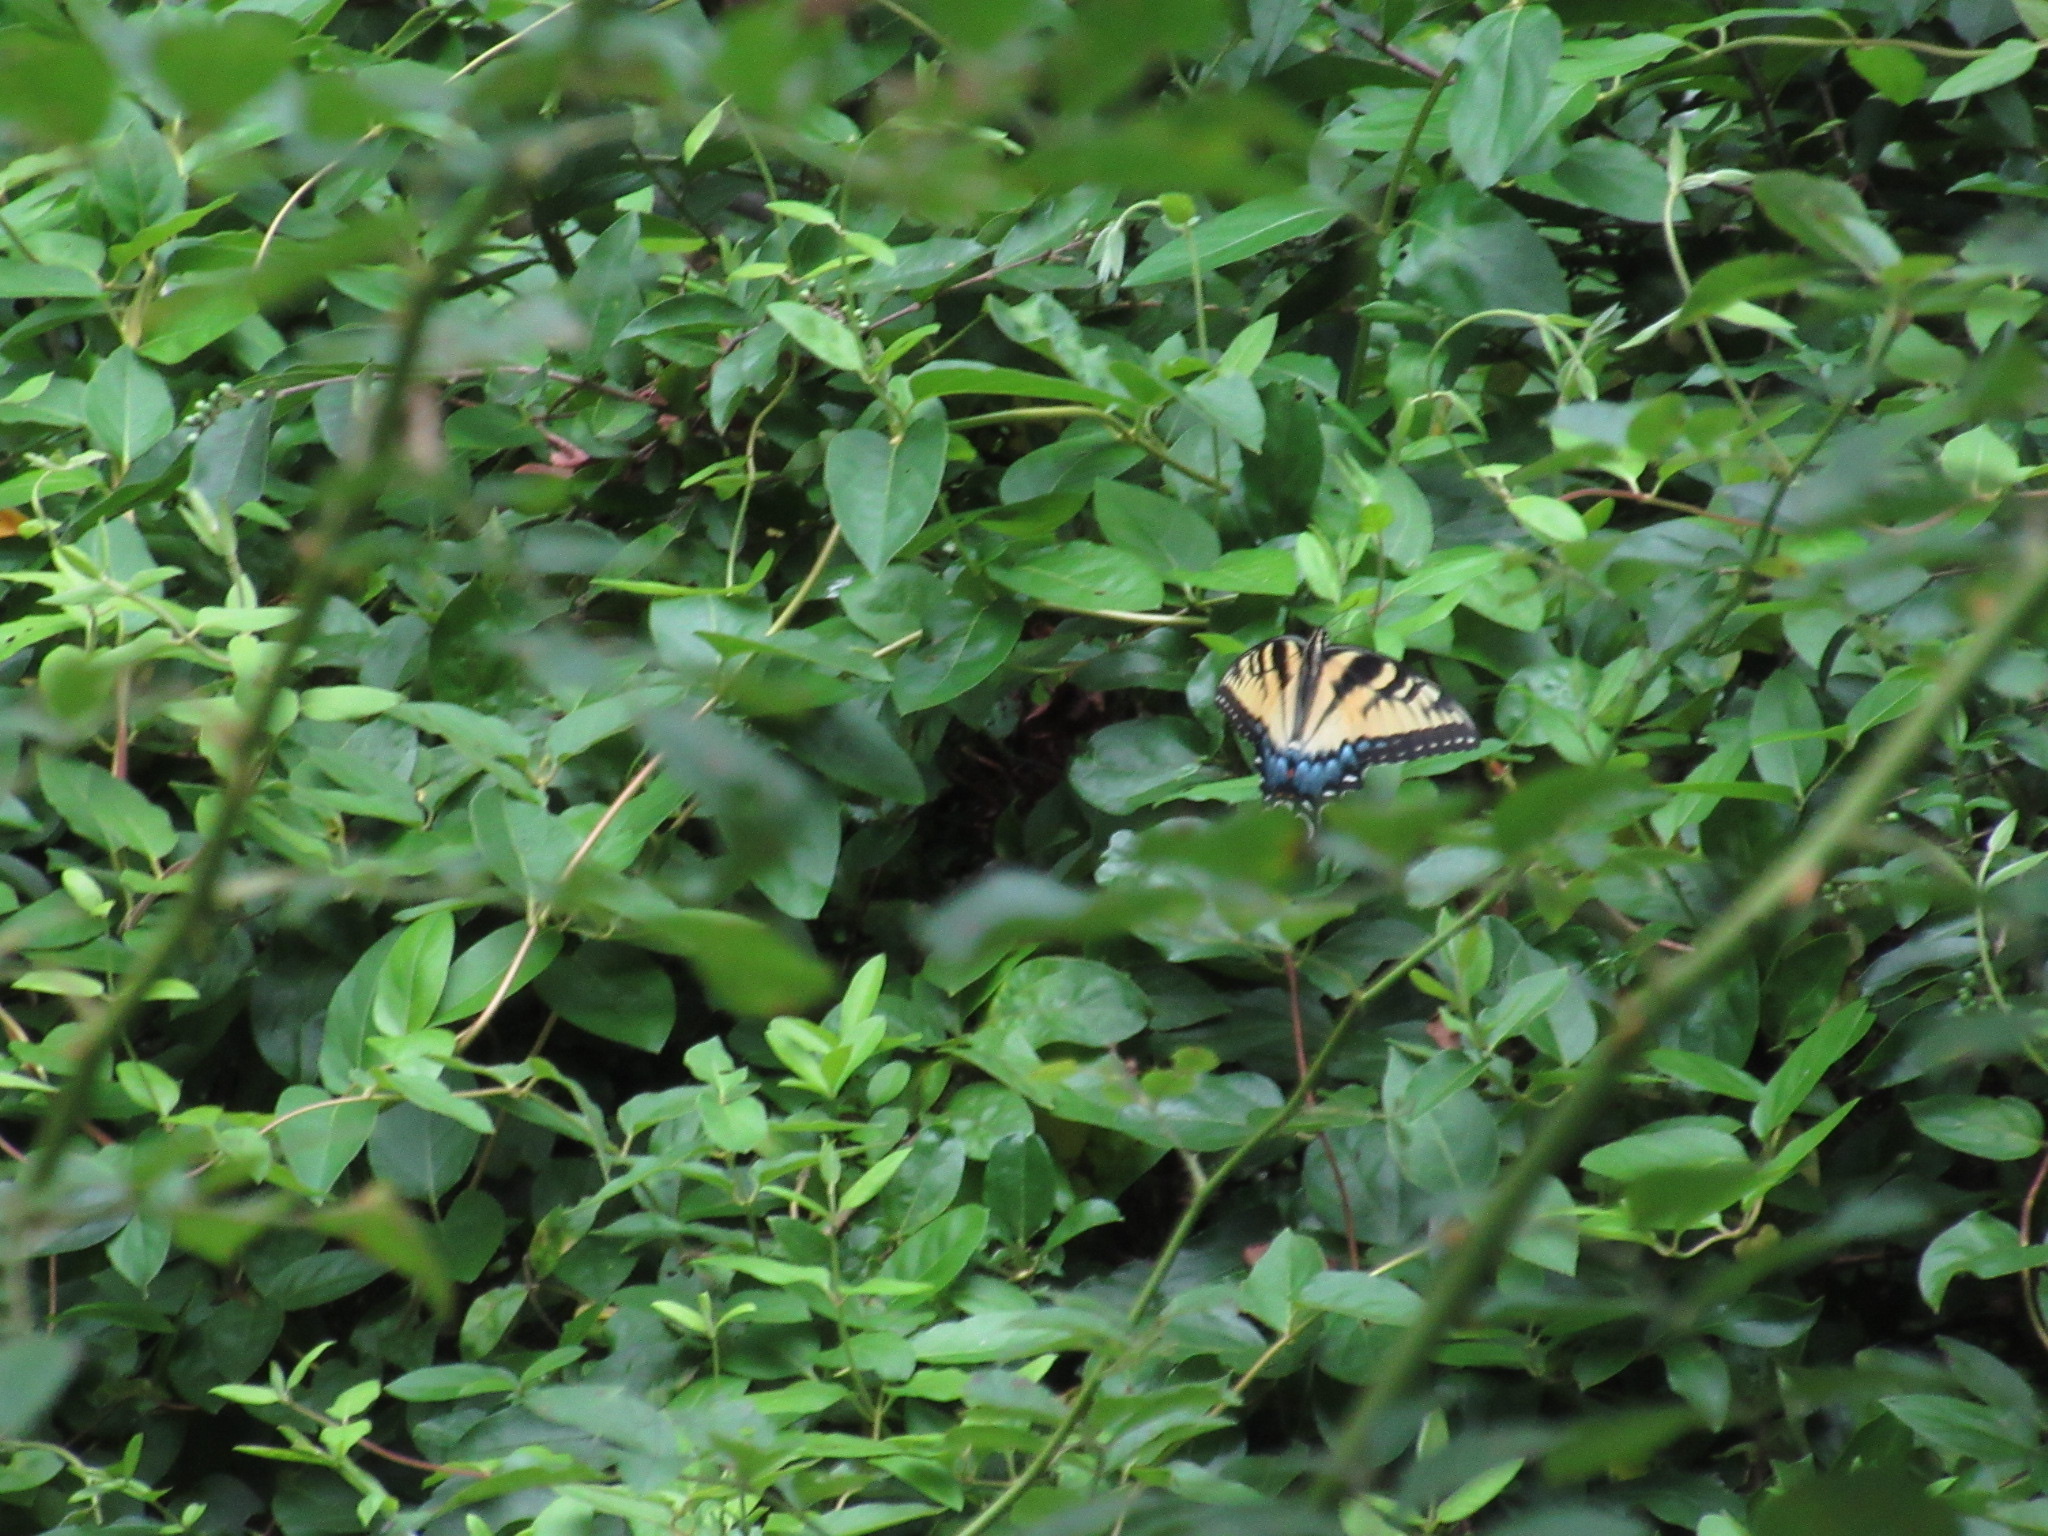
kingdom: Animalia
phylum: Arthropoda
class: Insecta
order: Lepidoptera
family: Papilionidae
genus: Papilio
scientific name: Papilio glaucus
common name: Tiger swallowtail
